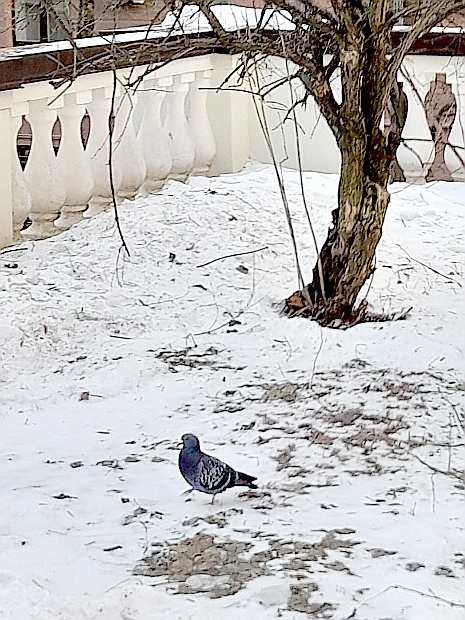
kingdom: Animalia
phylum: Chordata
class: Aves
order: Columbiformes
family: Columbidae
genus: Columba
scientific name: Columba livia
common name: Rock pigeon
